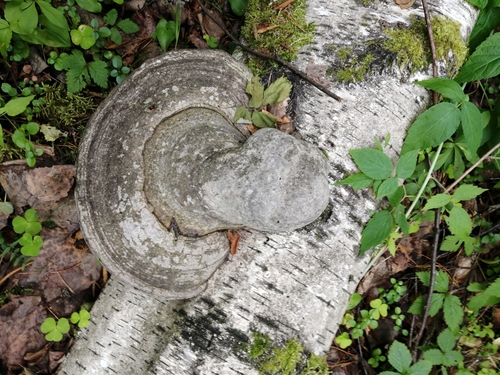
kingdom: Fungi
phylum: Basidiomycota
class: Agaricomycetes
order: Polyporales
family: Polyporaceae
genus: Fomes
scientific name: Fomes fomentarius
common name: Hoof fungus
